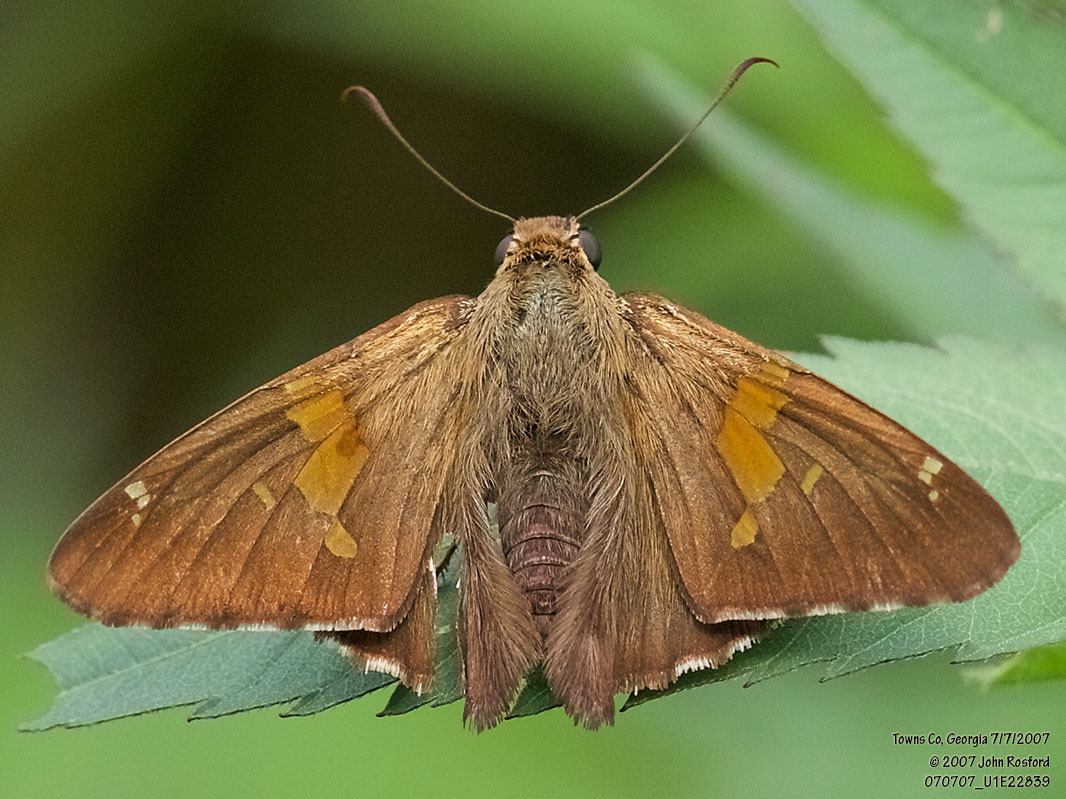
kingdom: Animalia
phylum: Arthropoda
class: Insecta
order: Lepidoptera
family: Hesperiidae
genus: Epargyreus
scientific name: Epargyreus clarus
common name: Silver-spotted skipper
